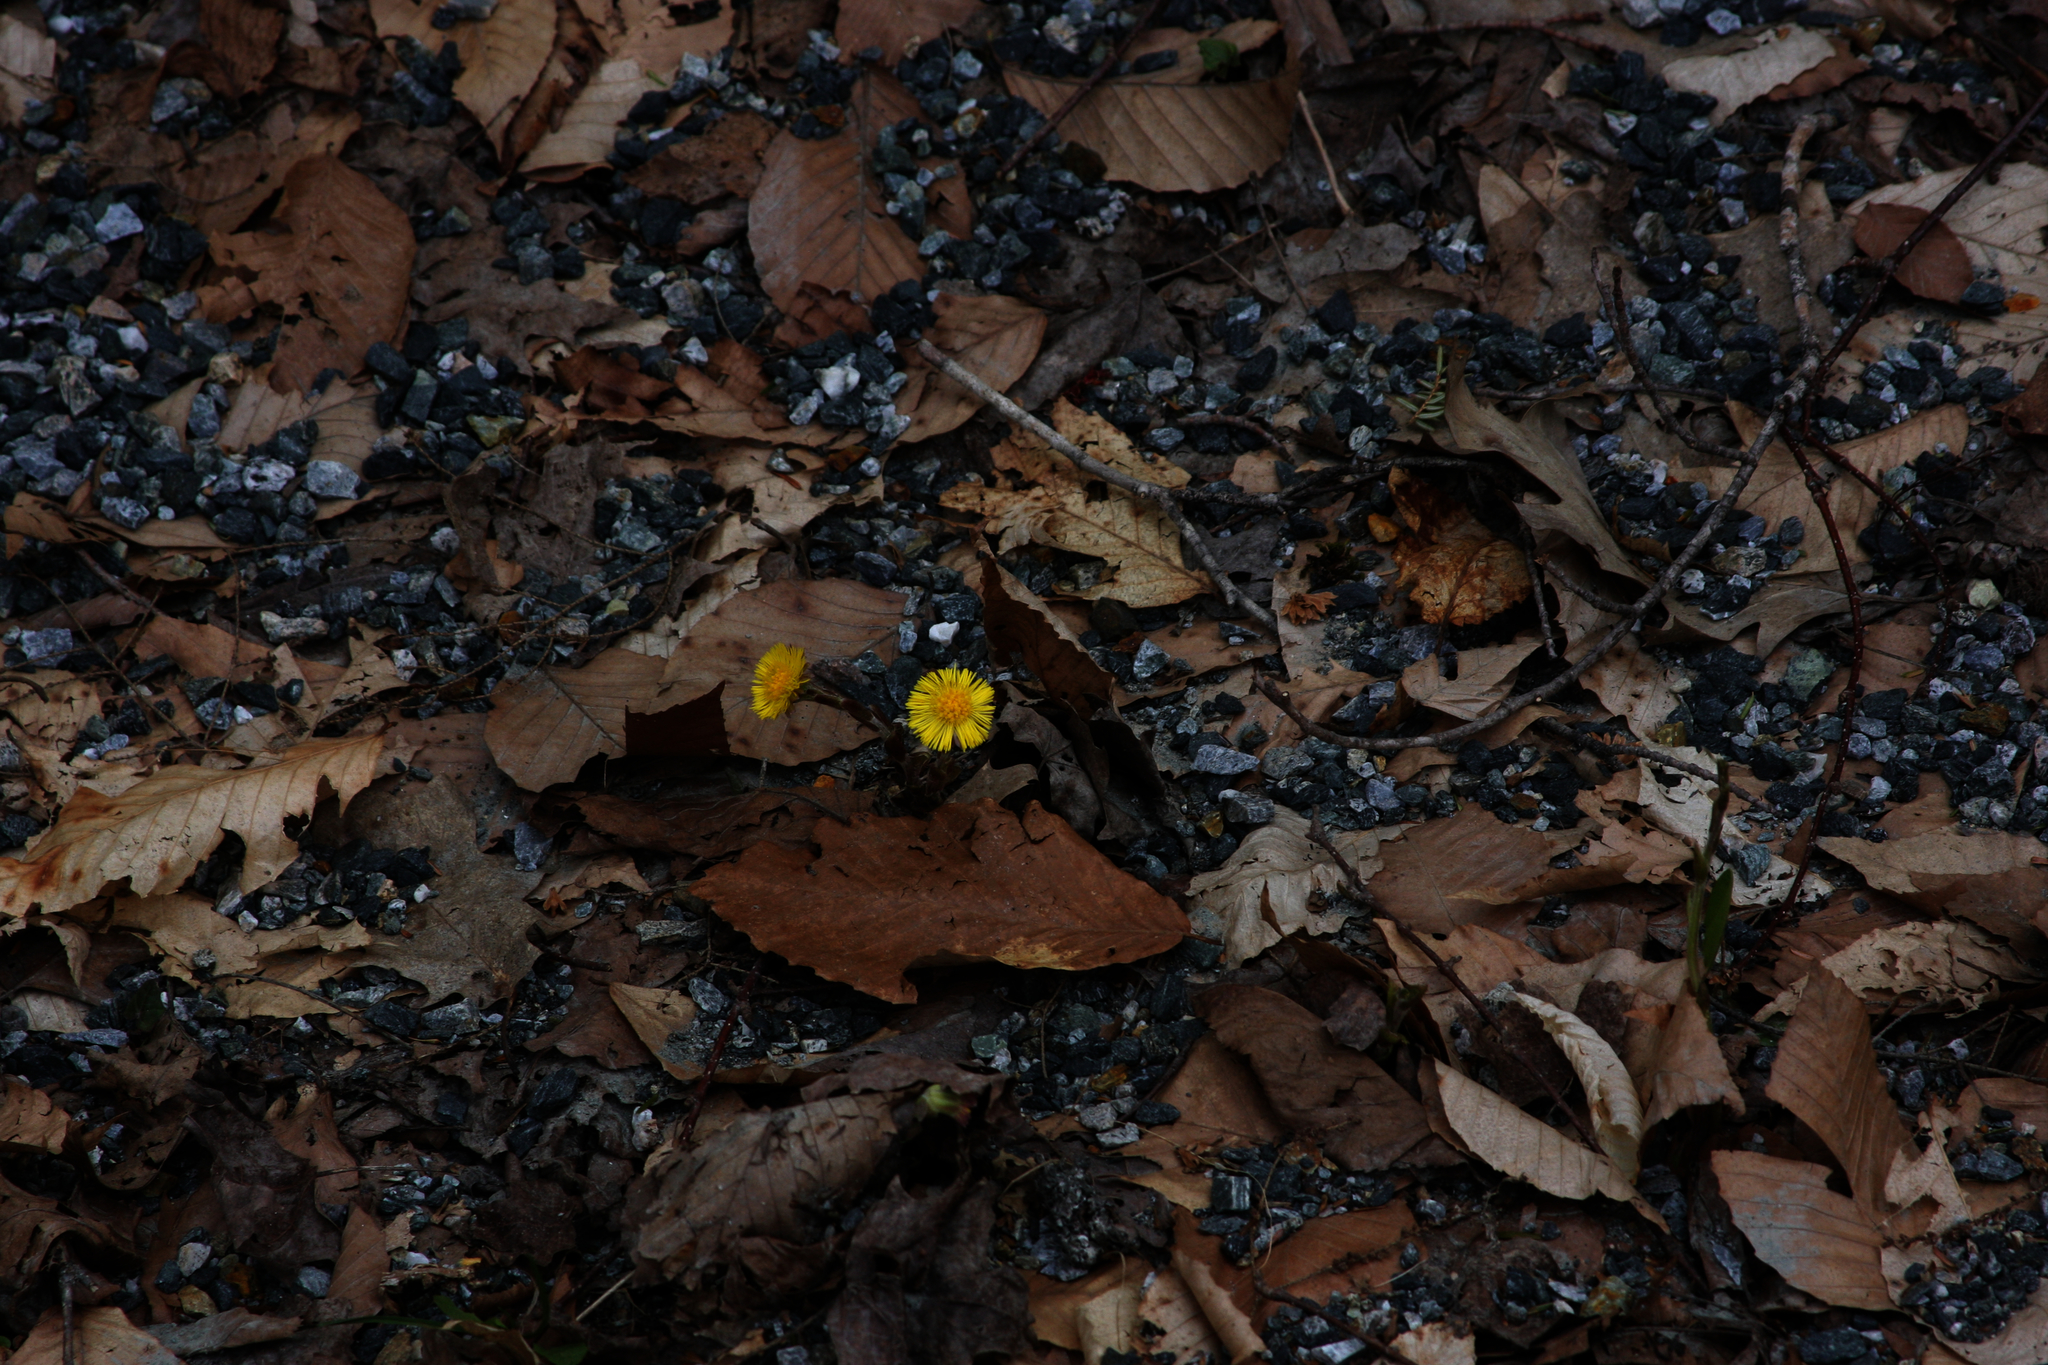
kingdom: Plantae
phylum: Tracheophyta
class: Magnoliopsida
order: Asterales
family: Asteraceae
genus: Tussilago
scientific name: Tussilago farfara
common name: Coltsfoot
